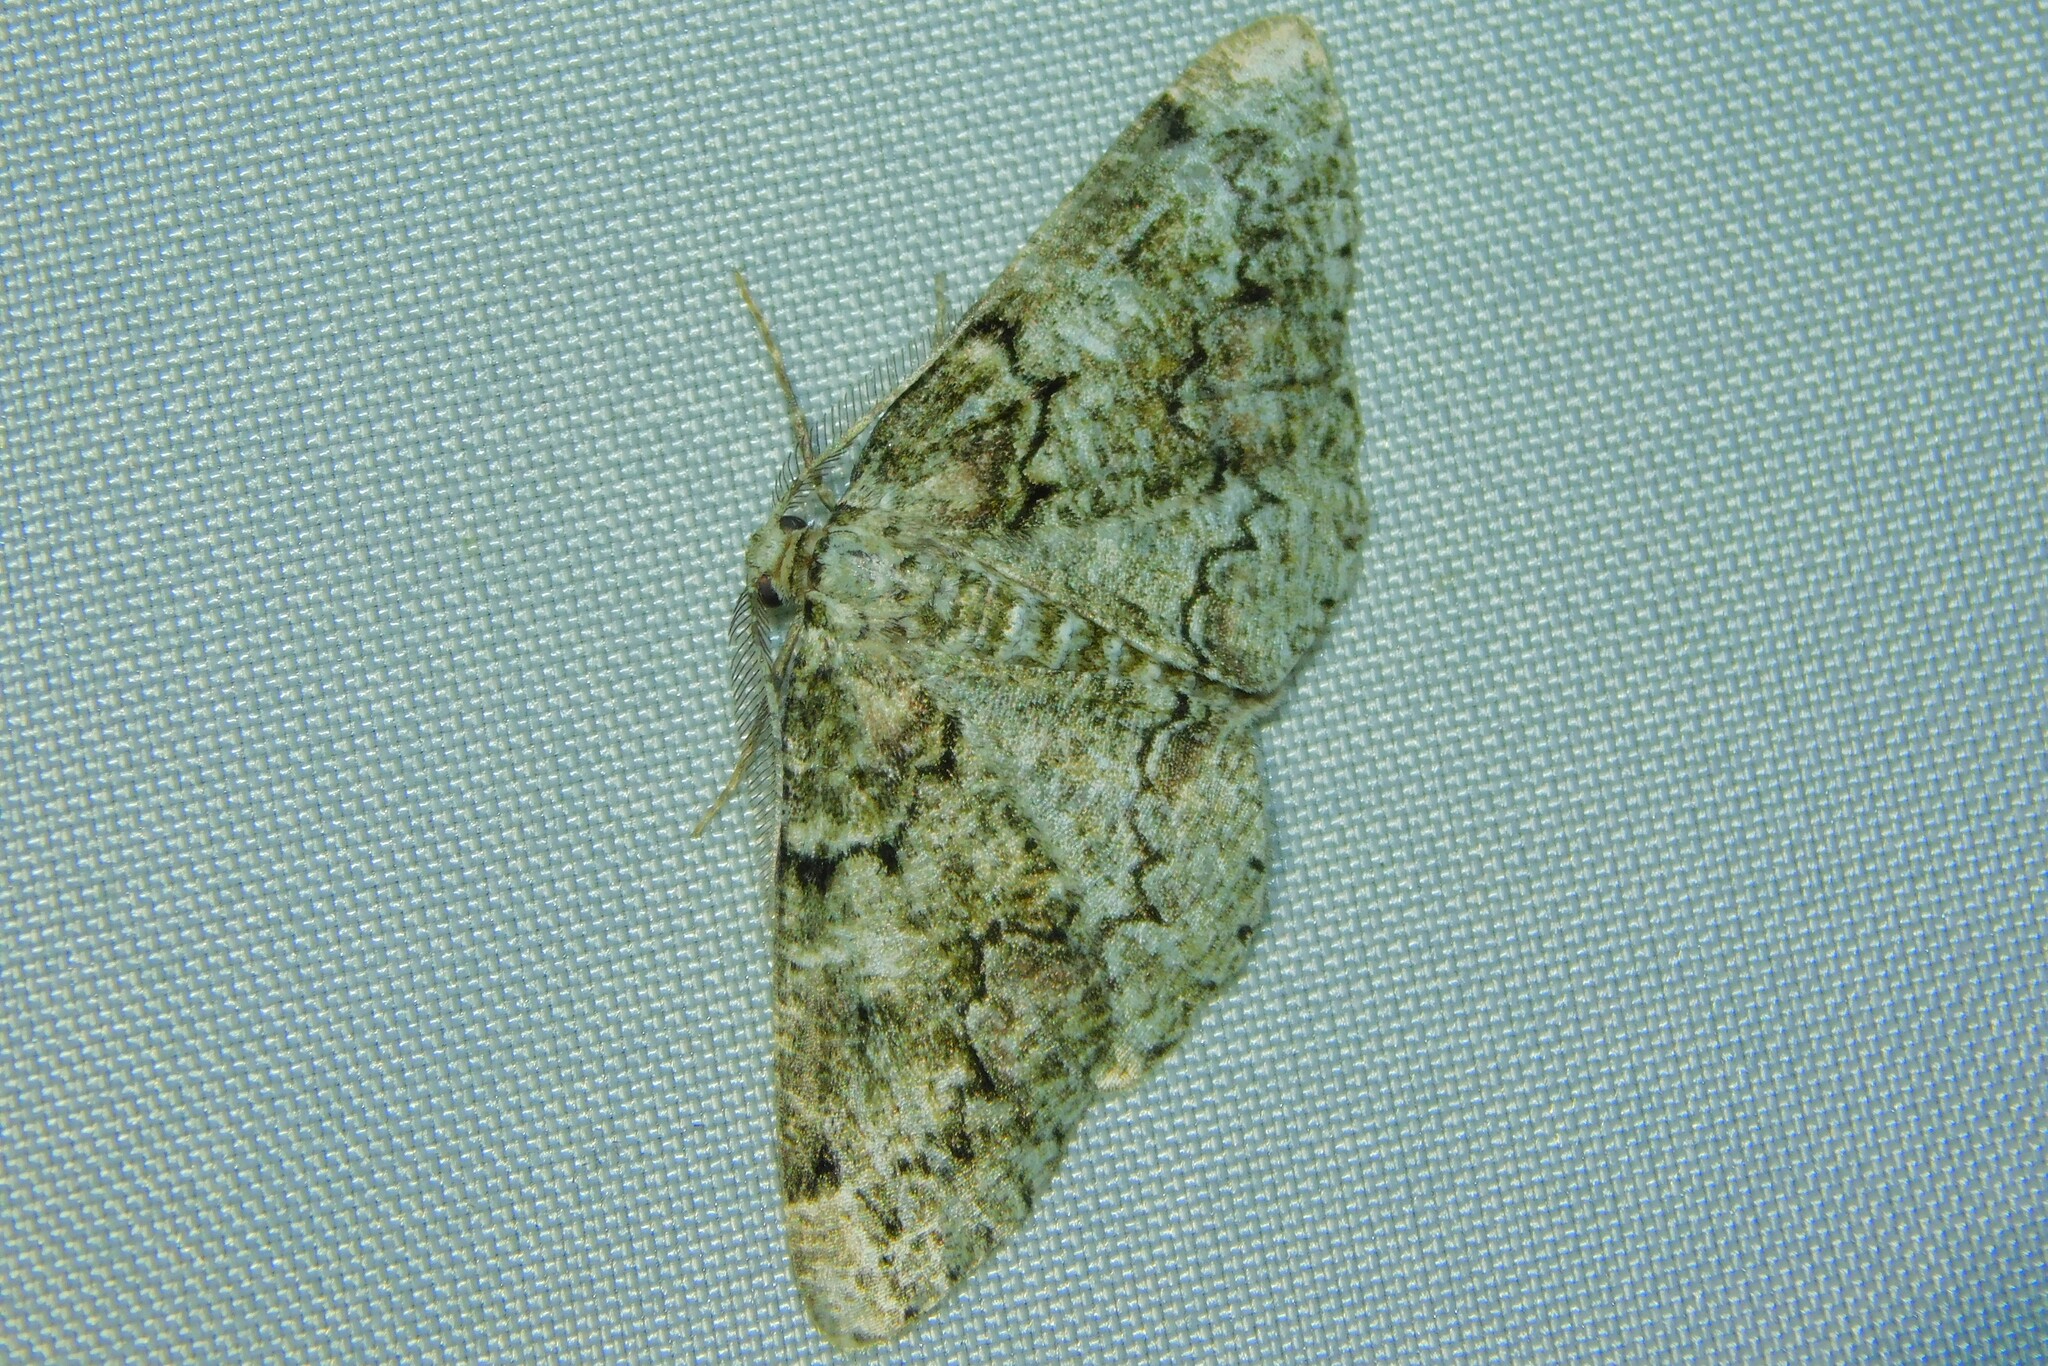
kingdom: Animalia
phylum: Arthropoda
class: Insecta
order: Lepidoptera
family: Geometridae
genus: Cleorodes
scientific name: Cleorodes lichenaria
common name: Brussels lace
